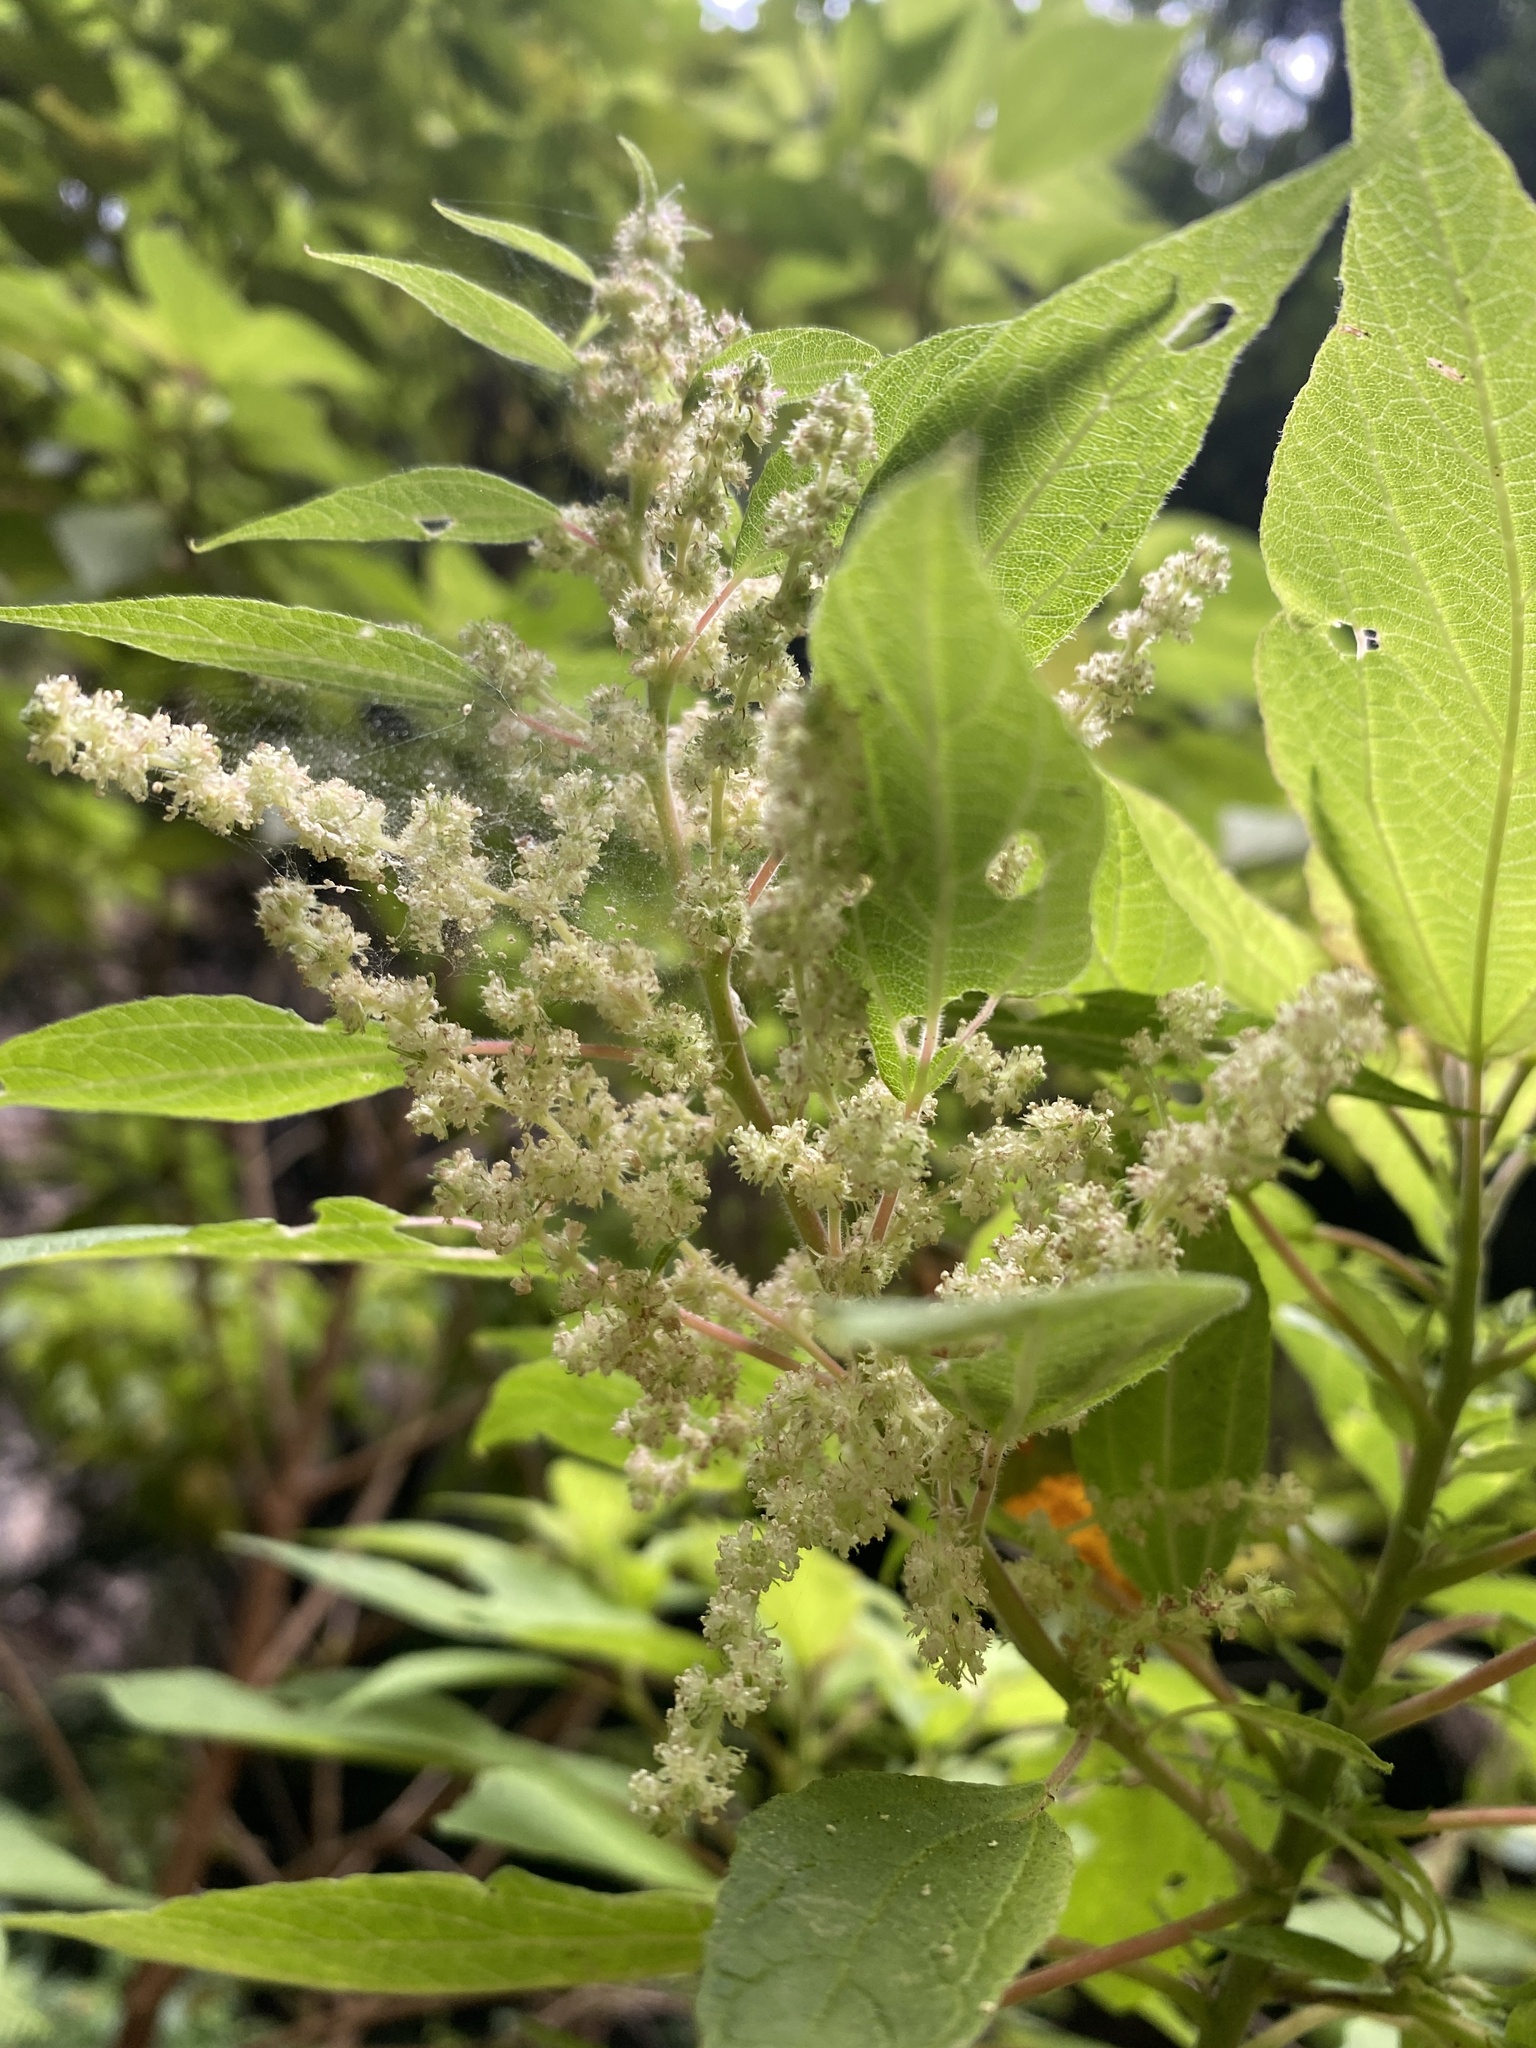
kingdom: Plantae
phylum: Tracheophyta
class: Magnoliopsida
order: Rosales
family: Urticaceae
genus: Gesnouinia
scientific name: Gesnouinia arborea
